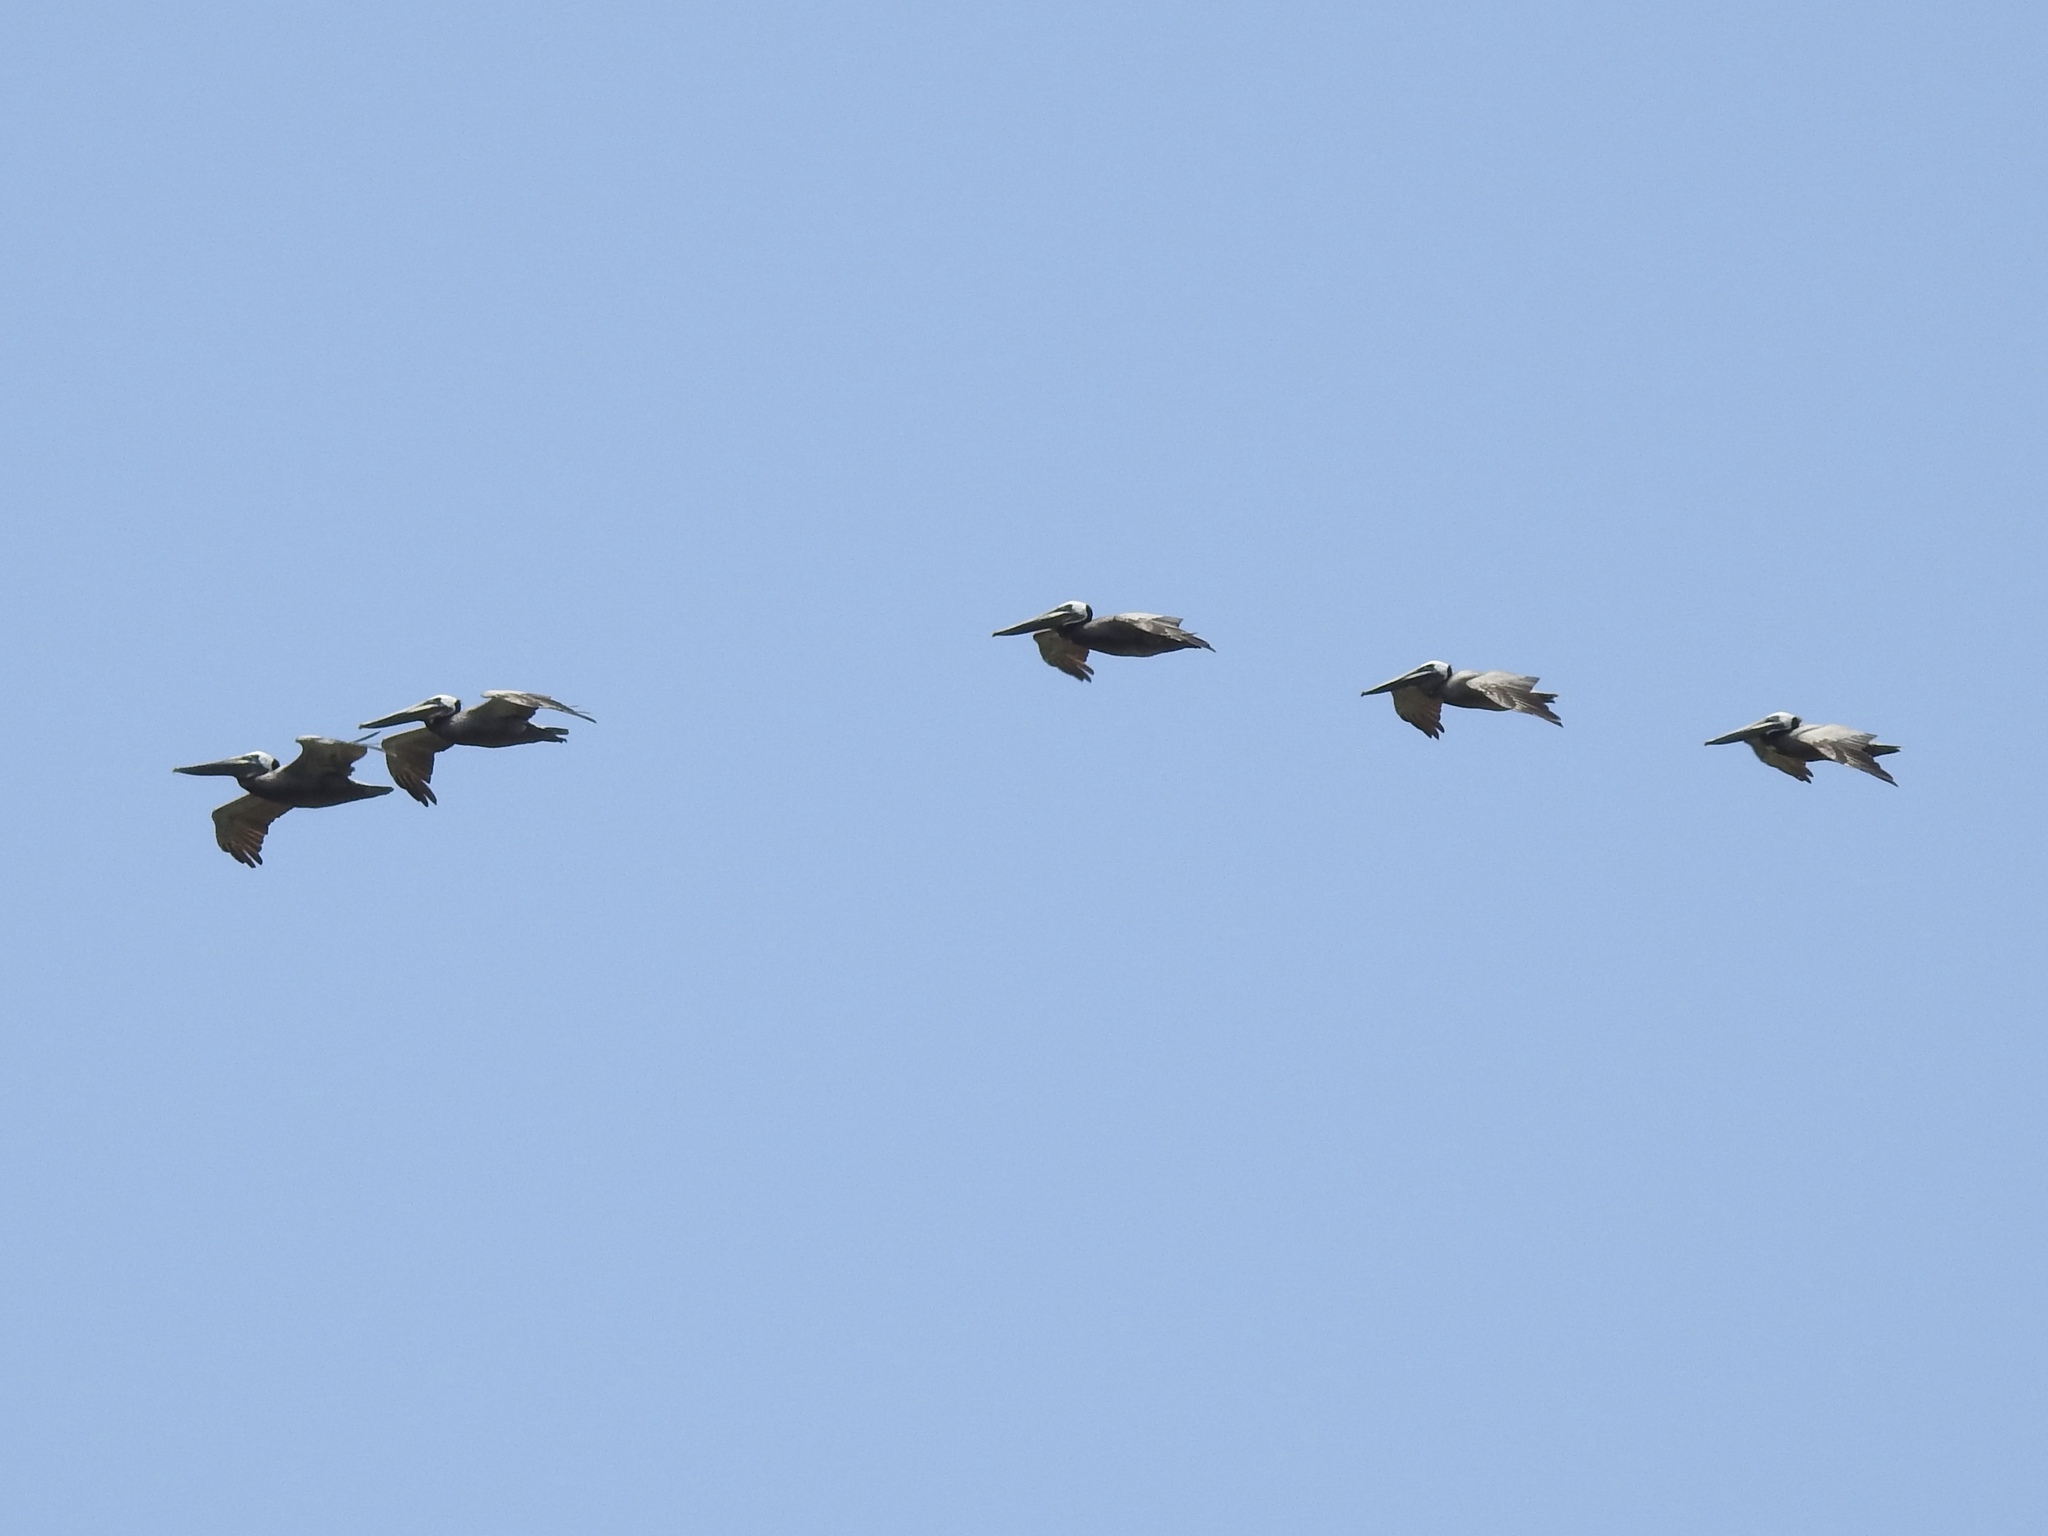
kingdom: Animalia
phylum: Chordata
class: Aves
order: Pelecaniformes
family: Pelecanidae
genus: Pelecanus
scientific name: Pelecanus occidentalis
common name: Brown pelican
